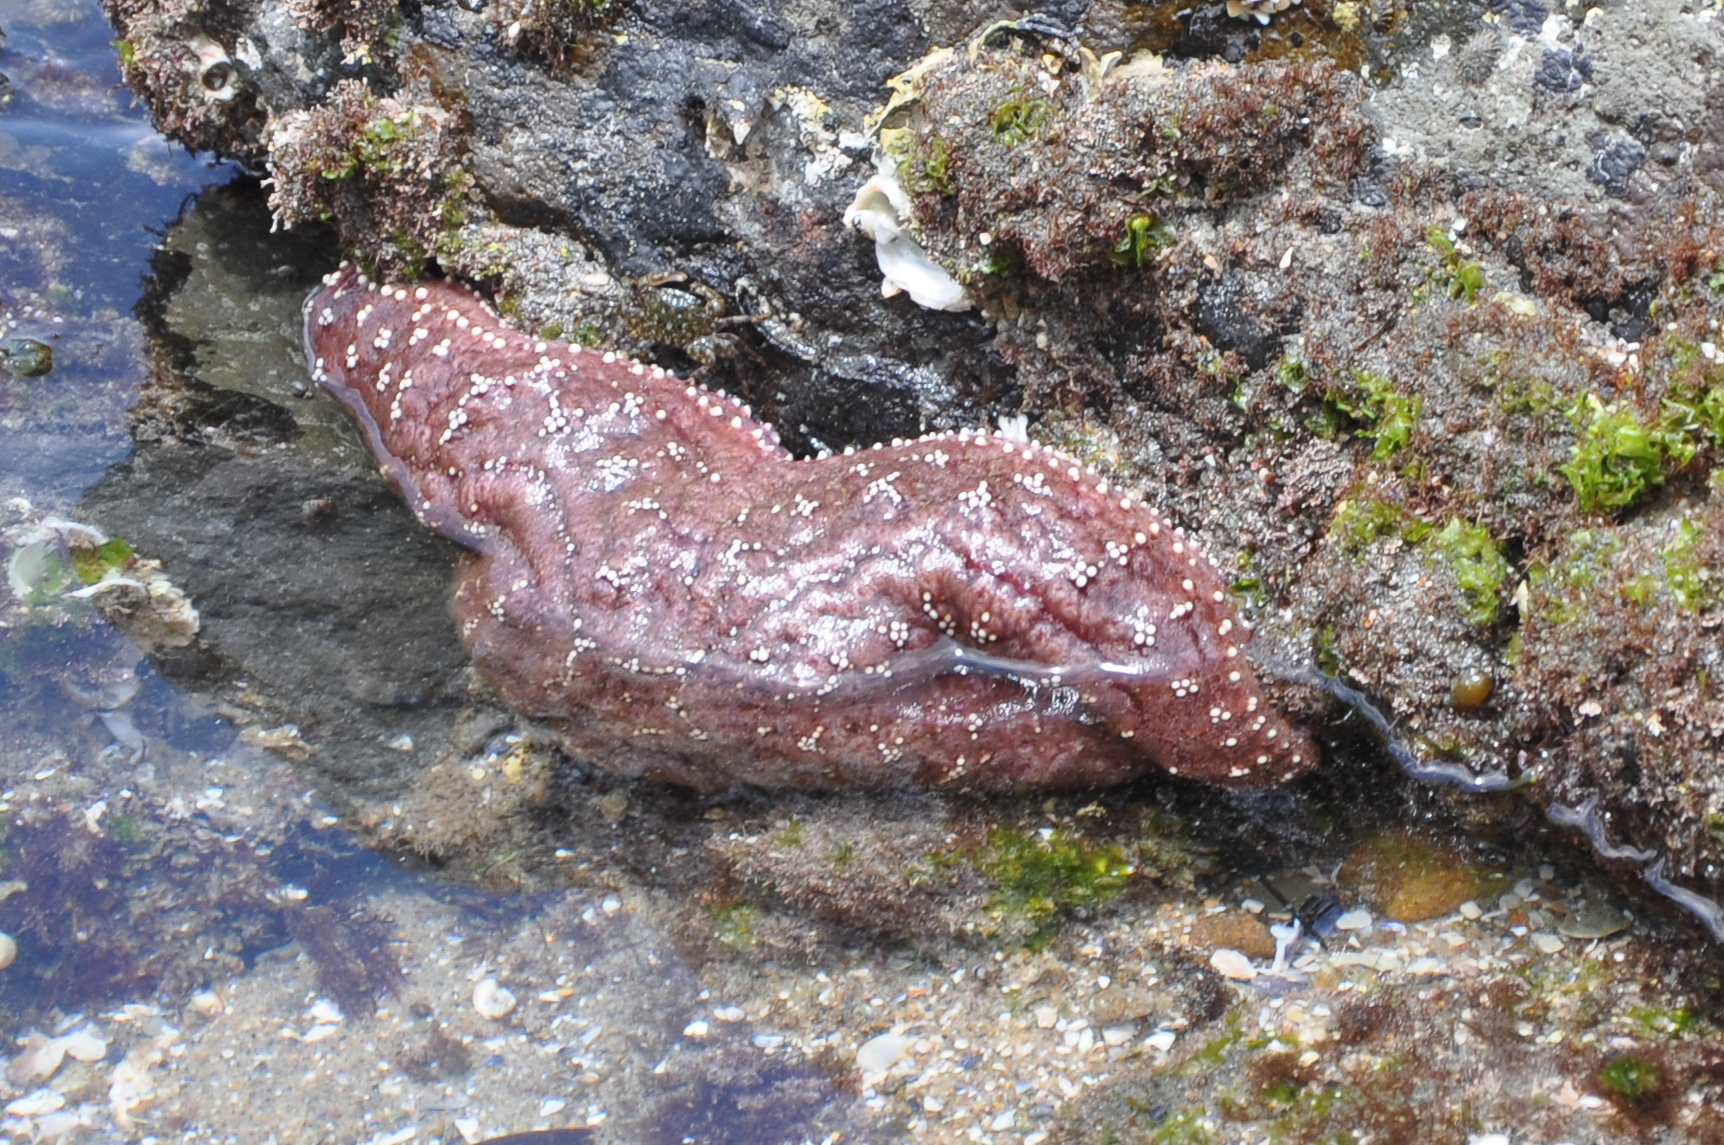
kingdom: Animalia
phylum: Echinodermata
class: Asteroidea
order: Forcipulatida
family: Asteriidae
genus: Pisaster
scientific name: Pisaster ochraceus
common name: Ochre stars
